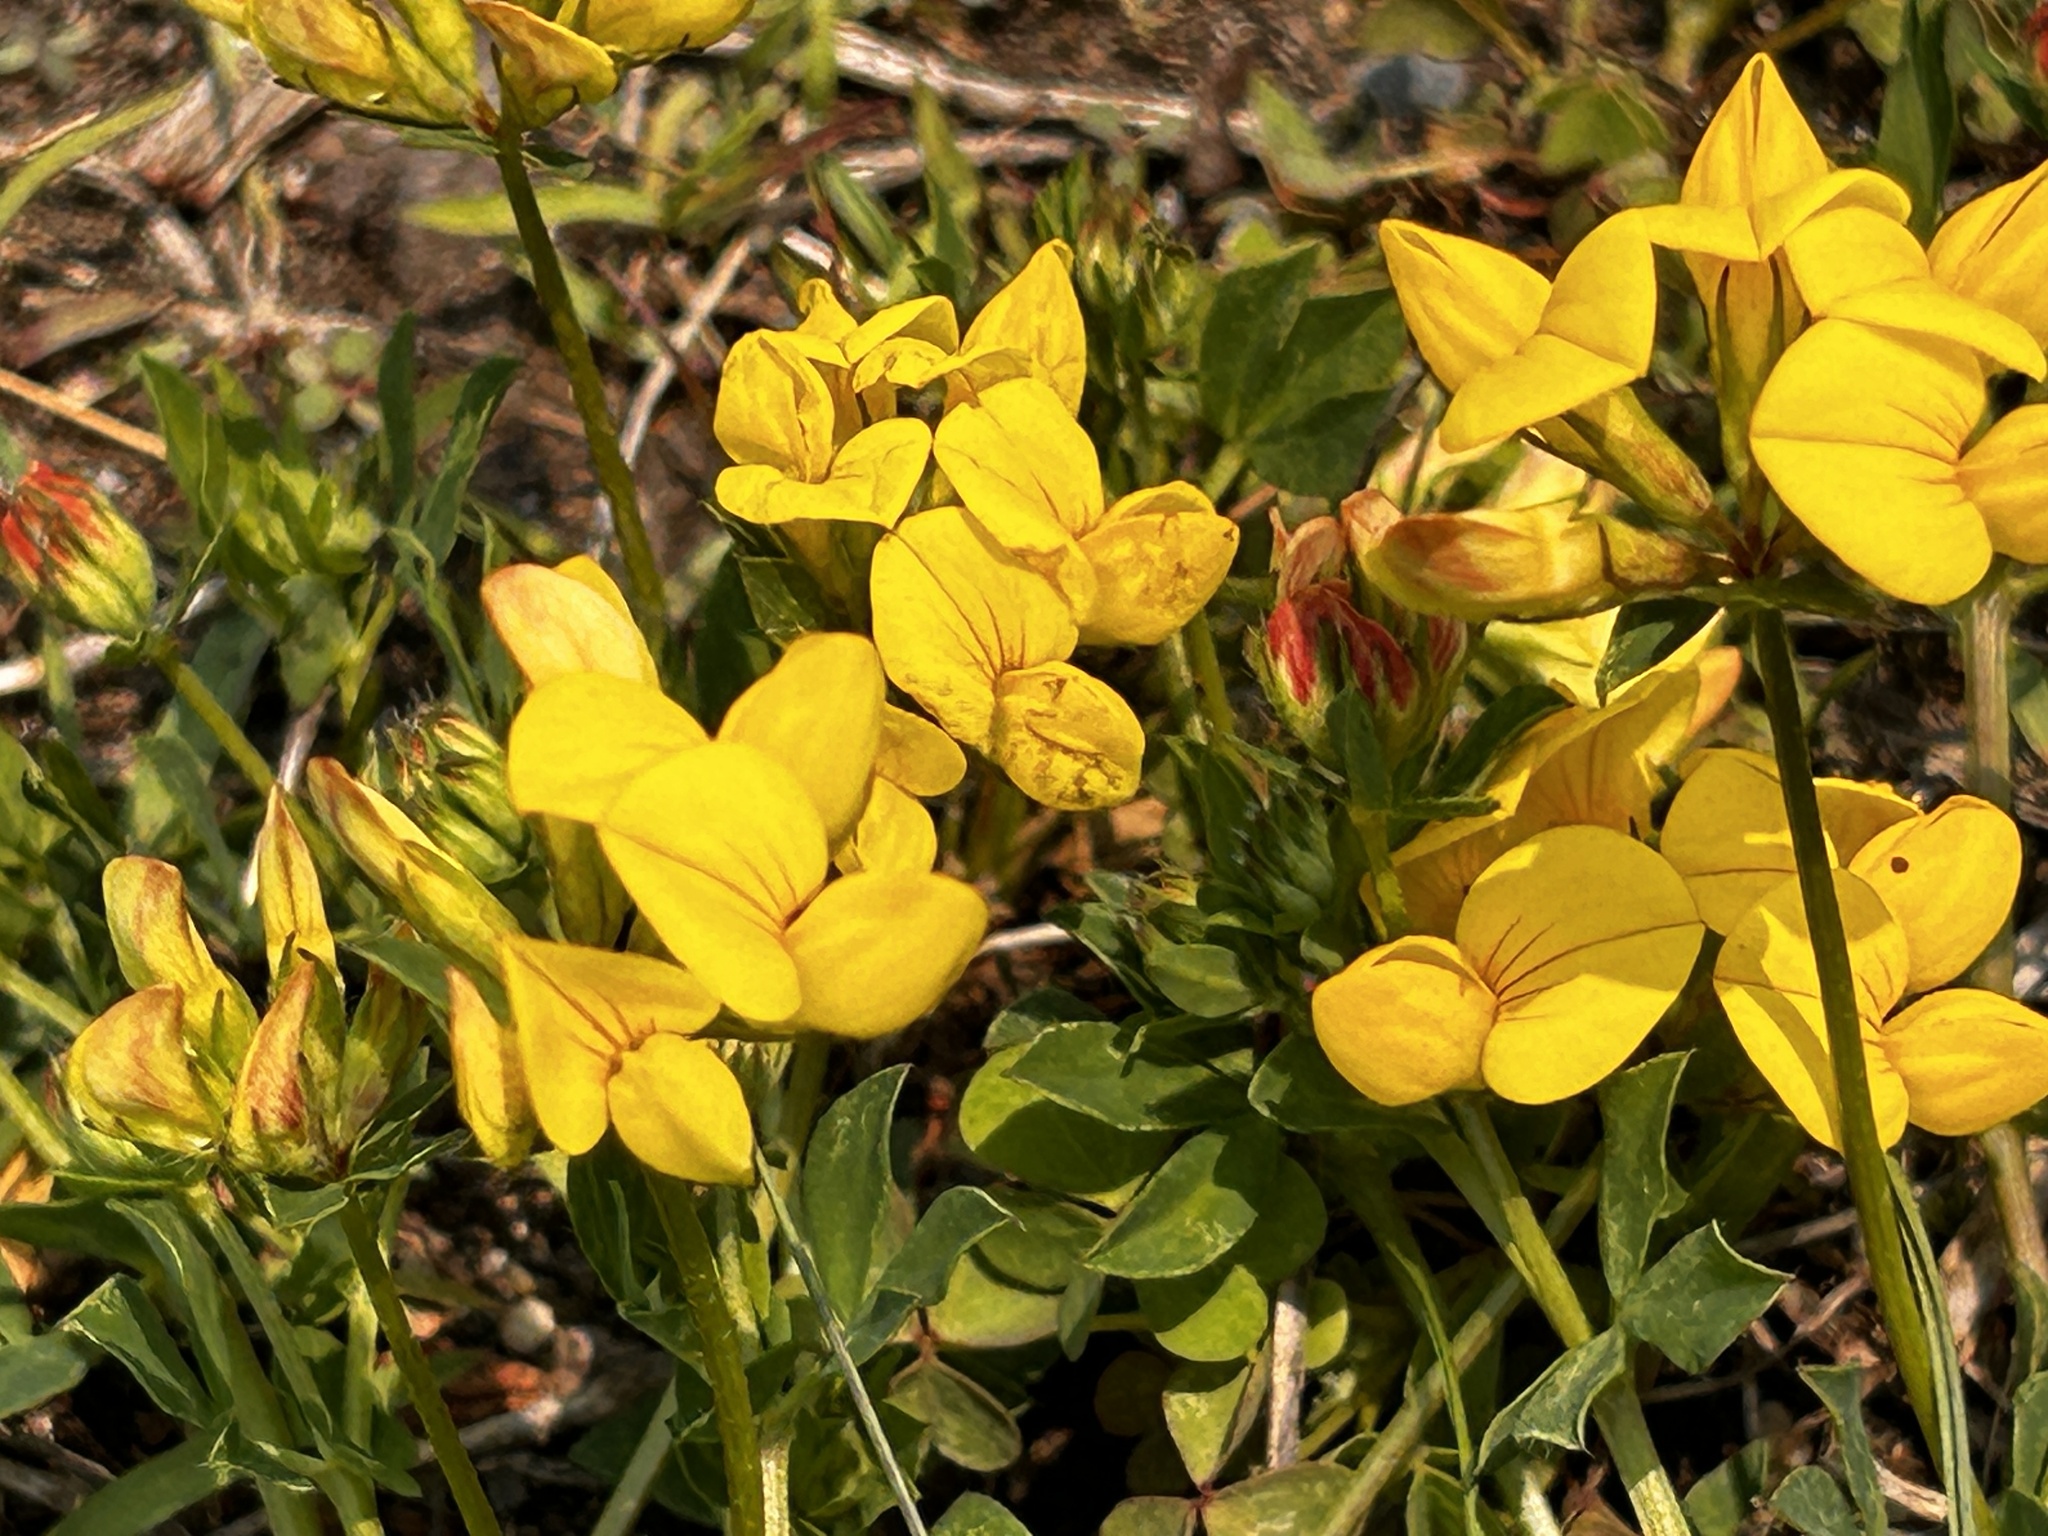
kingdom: Plantae
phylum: Tracheophyta
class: Magnoliopsida
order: Fabales
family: Fabaceae
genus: Lotus
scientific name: Lotus corniculatus
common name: Common bird's-foot-trefoil
